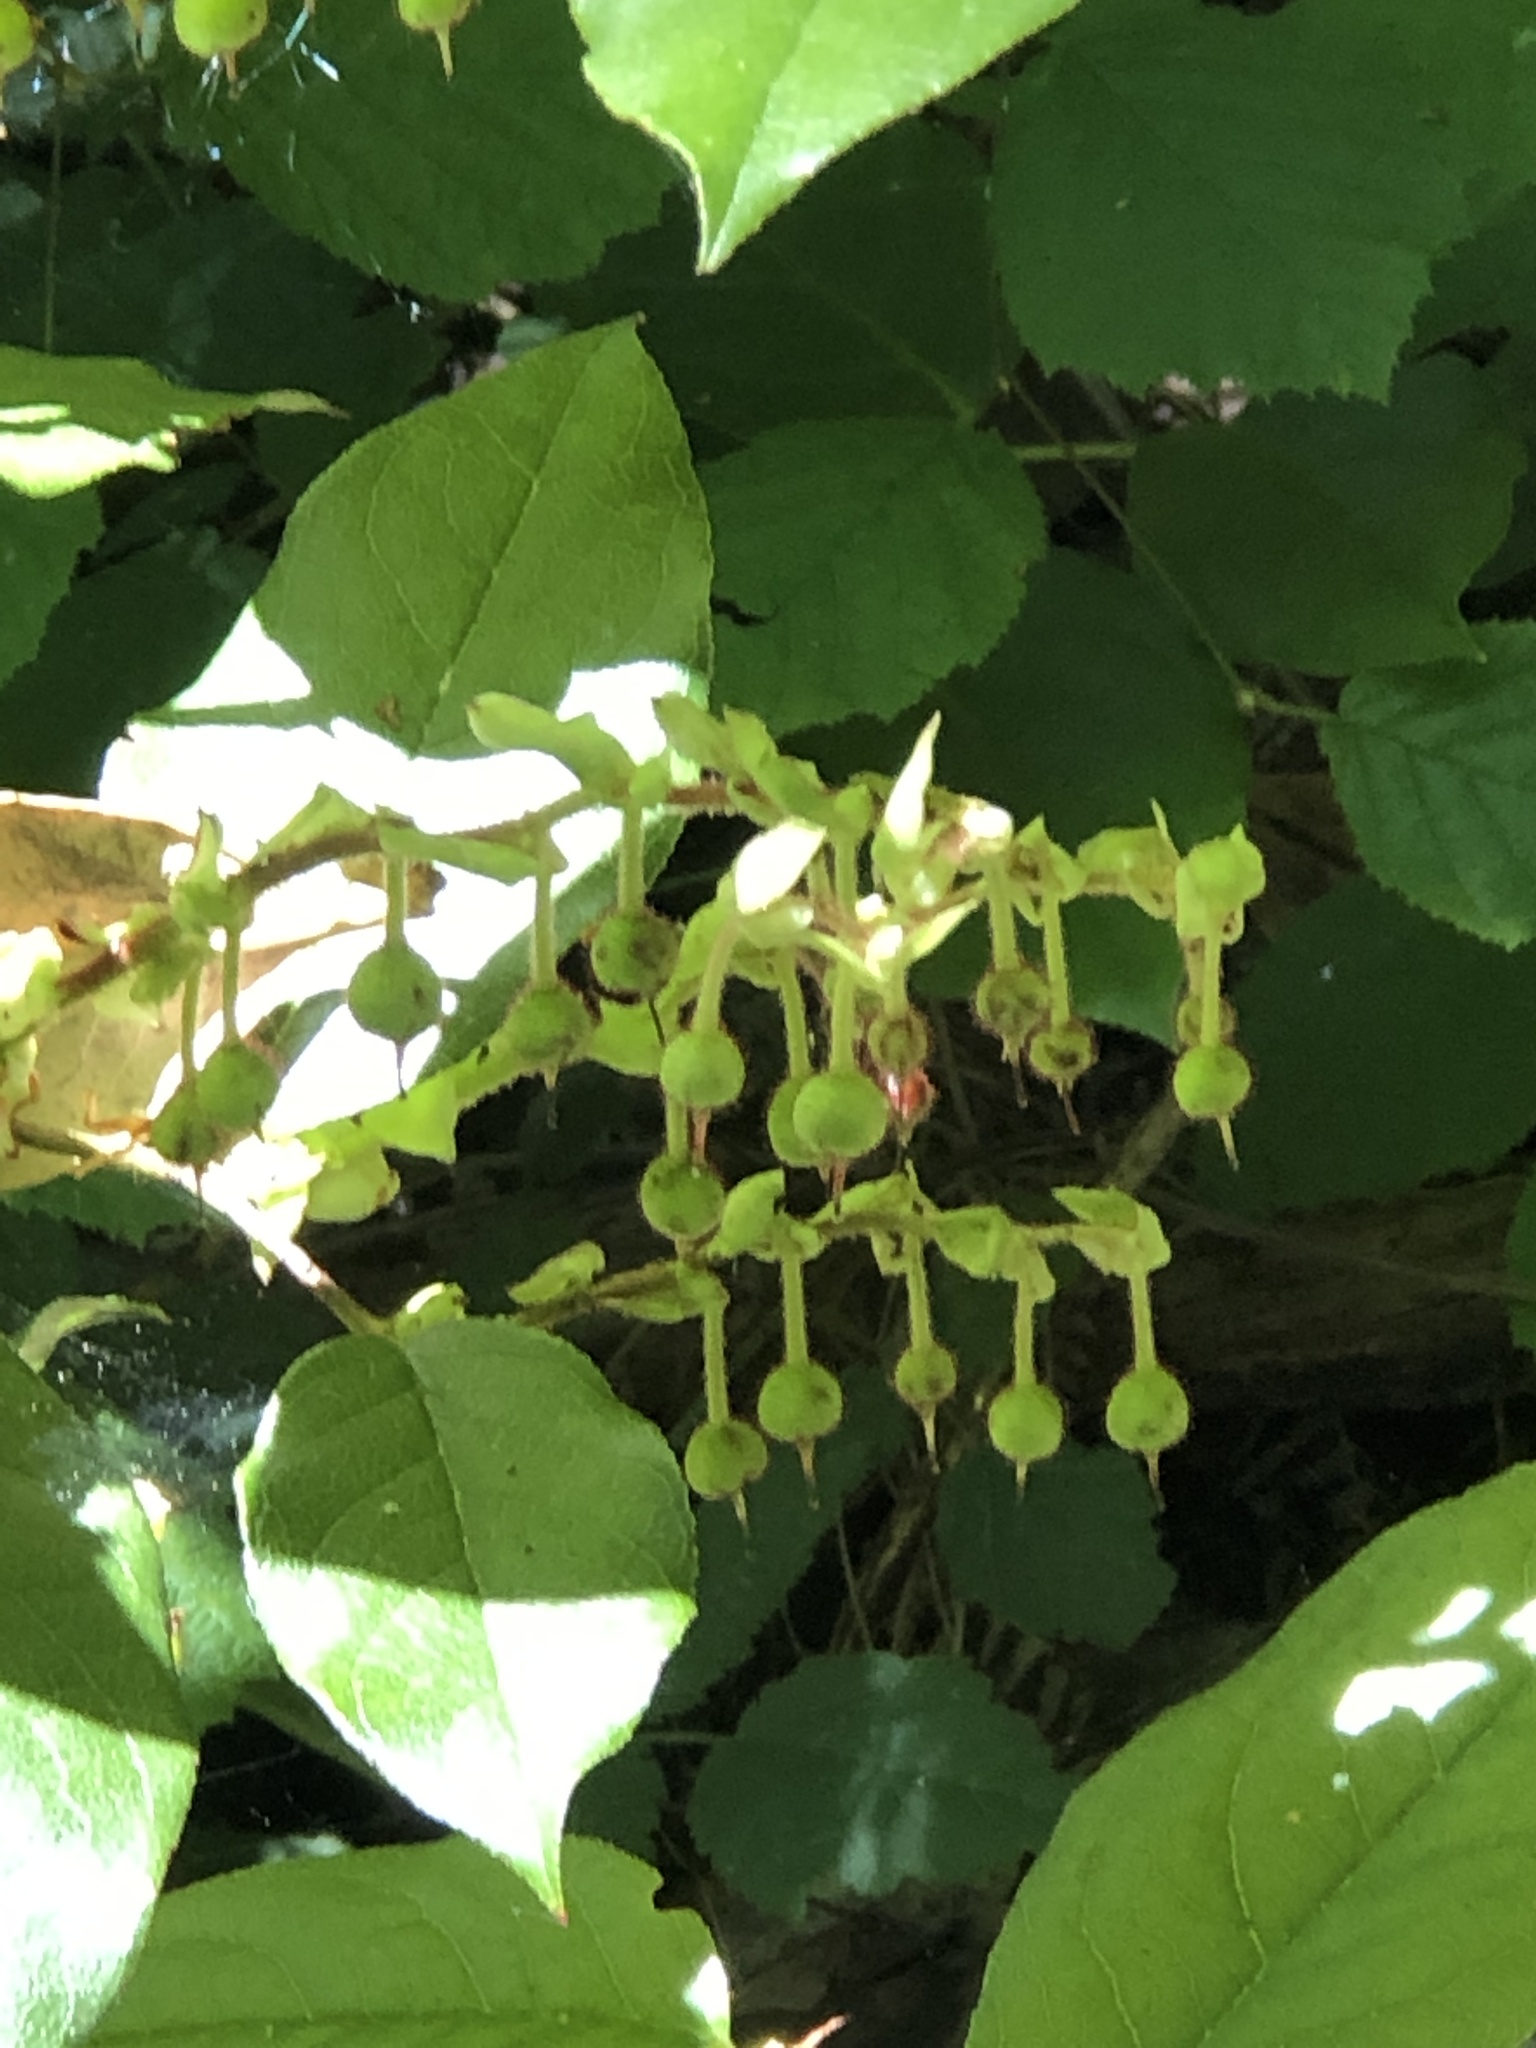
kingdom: Plantae
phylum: Tracheophyta
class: Magnoliopsida
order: Ericales
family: Ericaceae
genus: Gaultheria
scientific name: Gaultheria shallon
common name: Shallon
